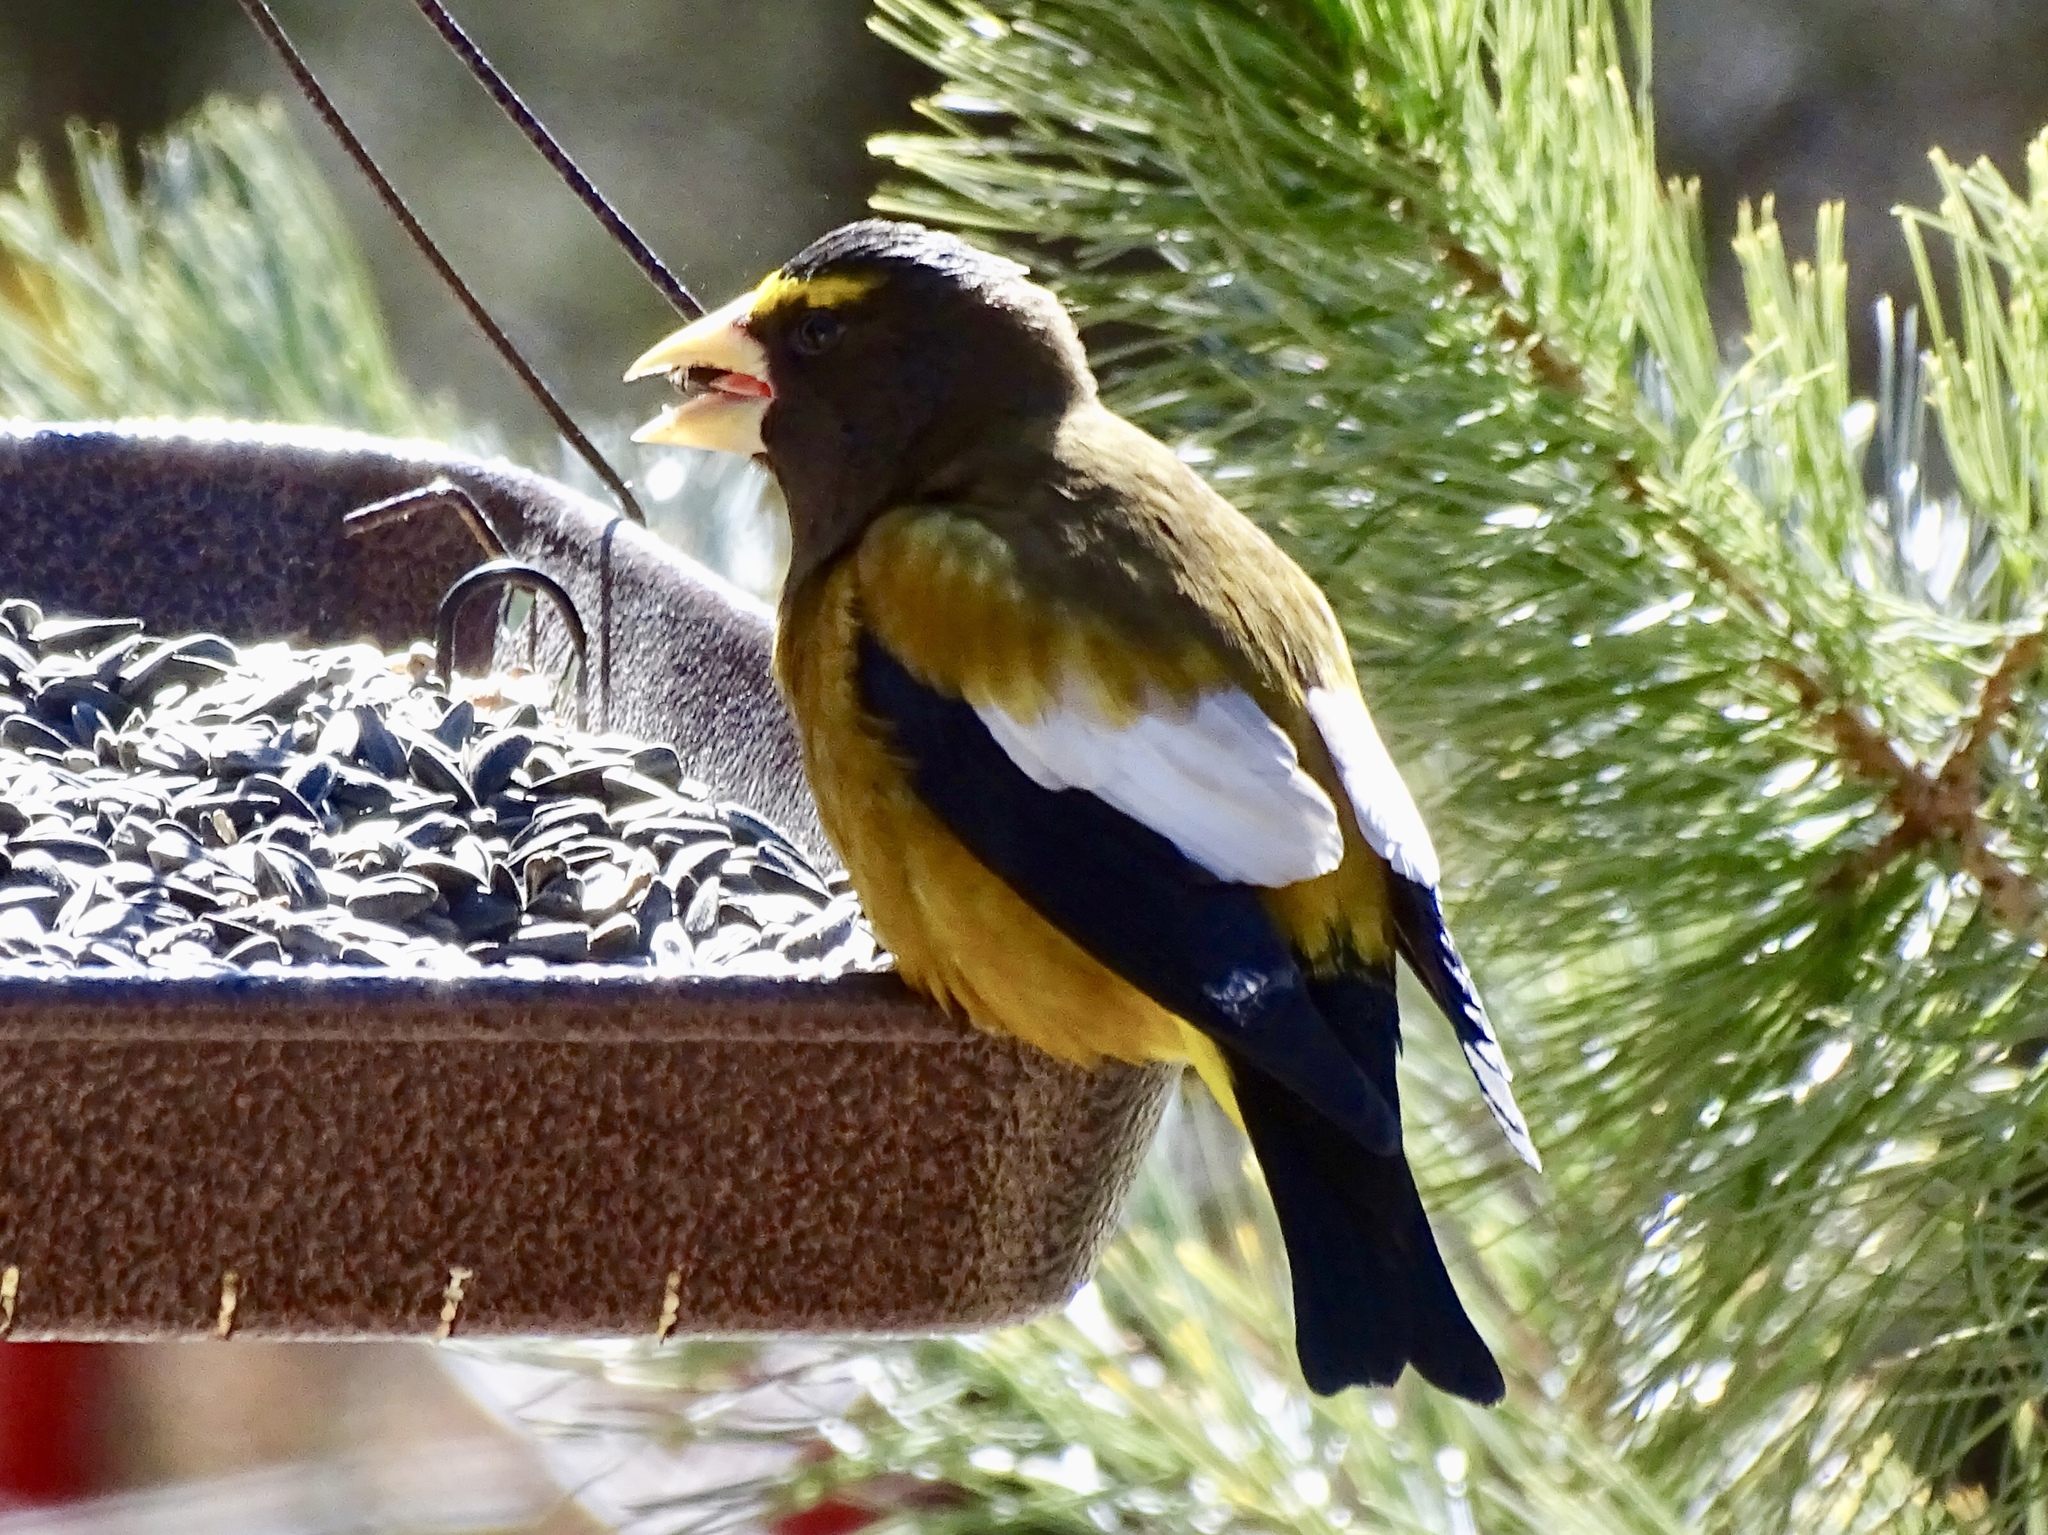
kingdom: Animalia
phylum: Chordata
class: Aves
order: Passeriformes
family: Fringillidae
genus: Hesperiphona
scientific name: Hesperiphona vespertina
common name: Evening grosbeak
